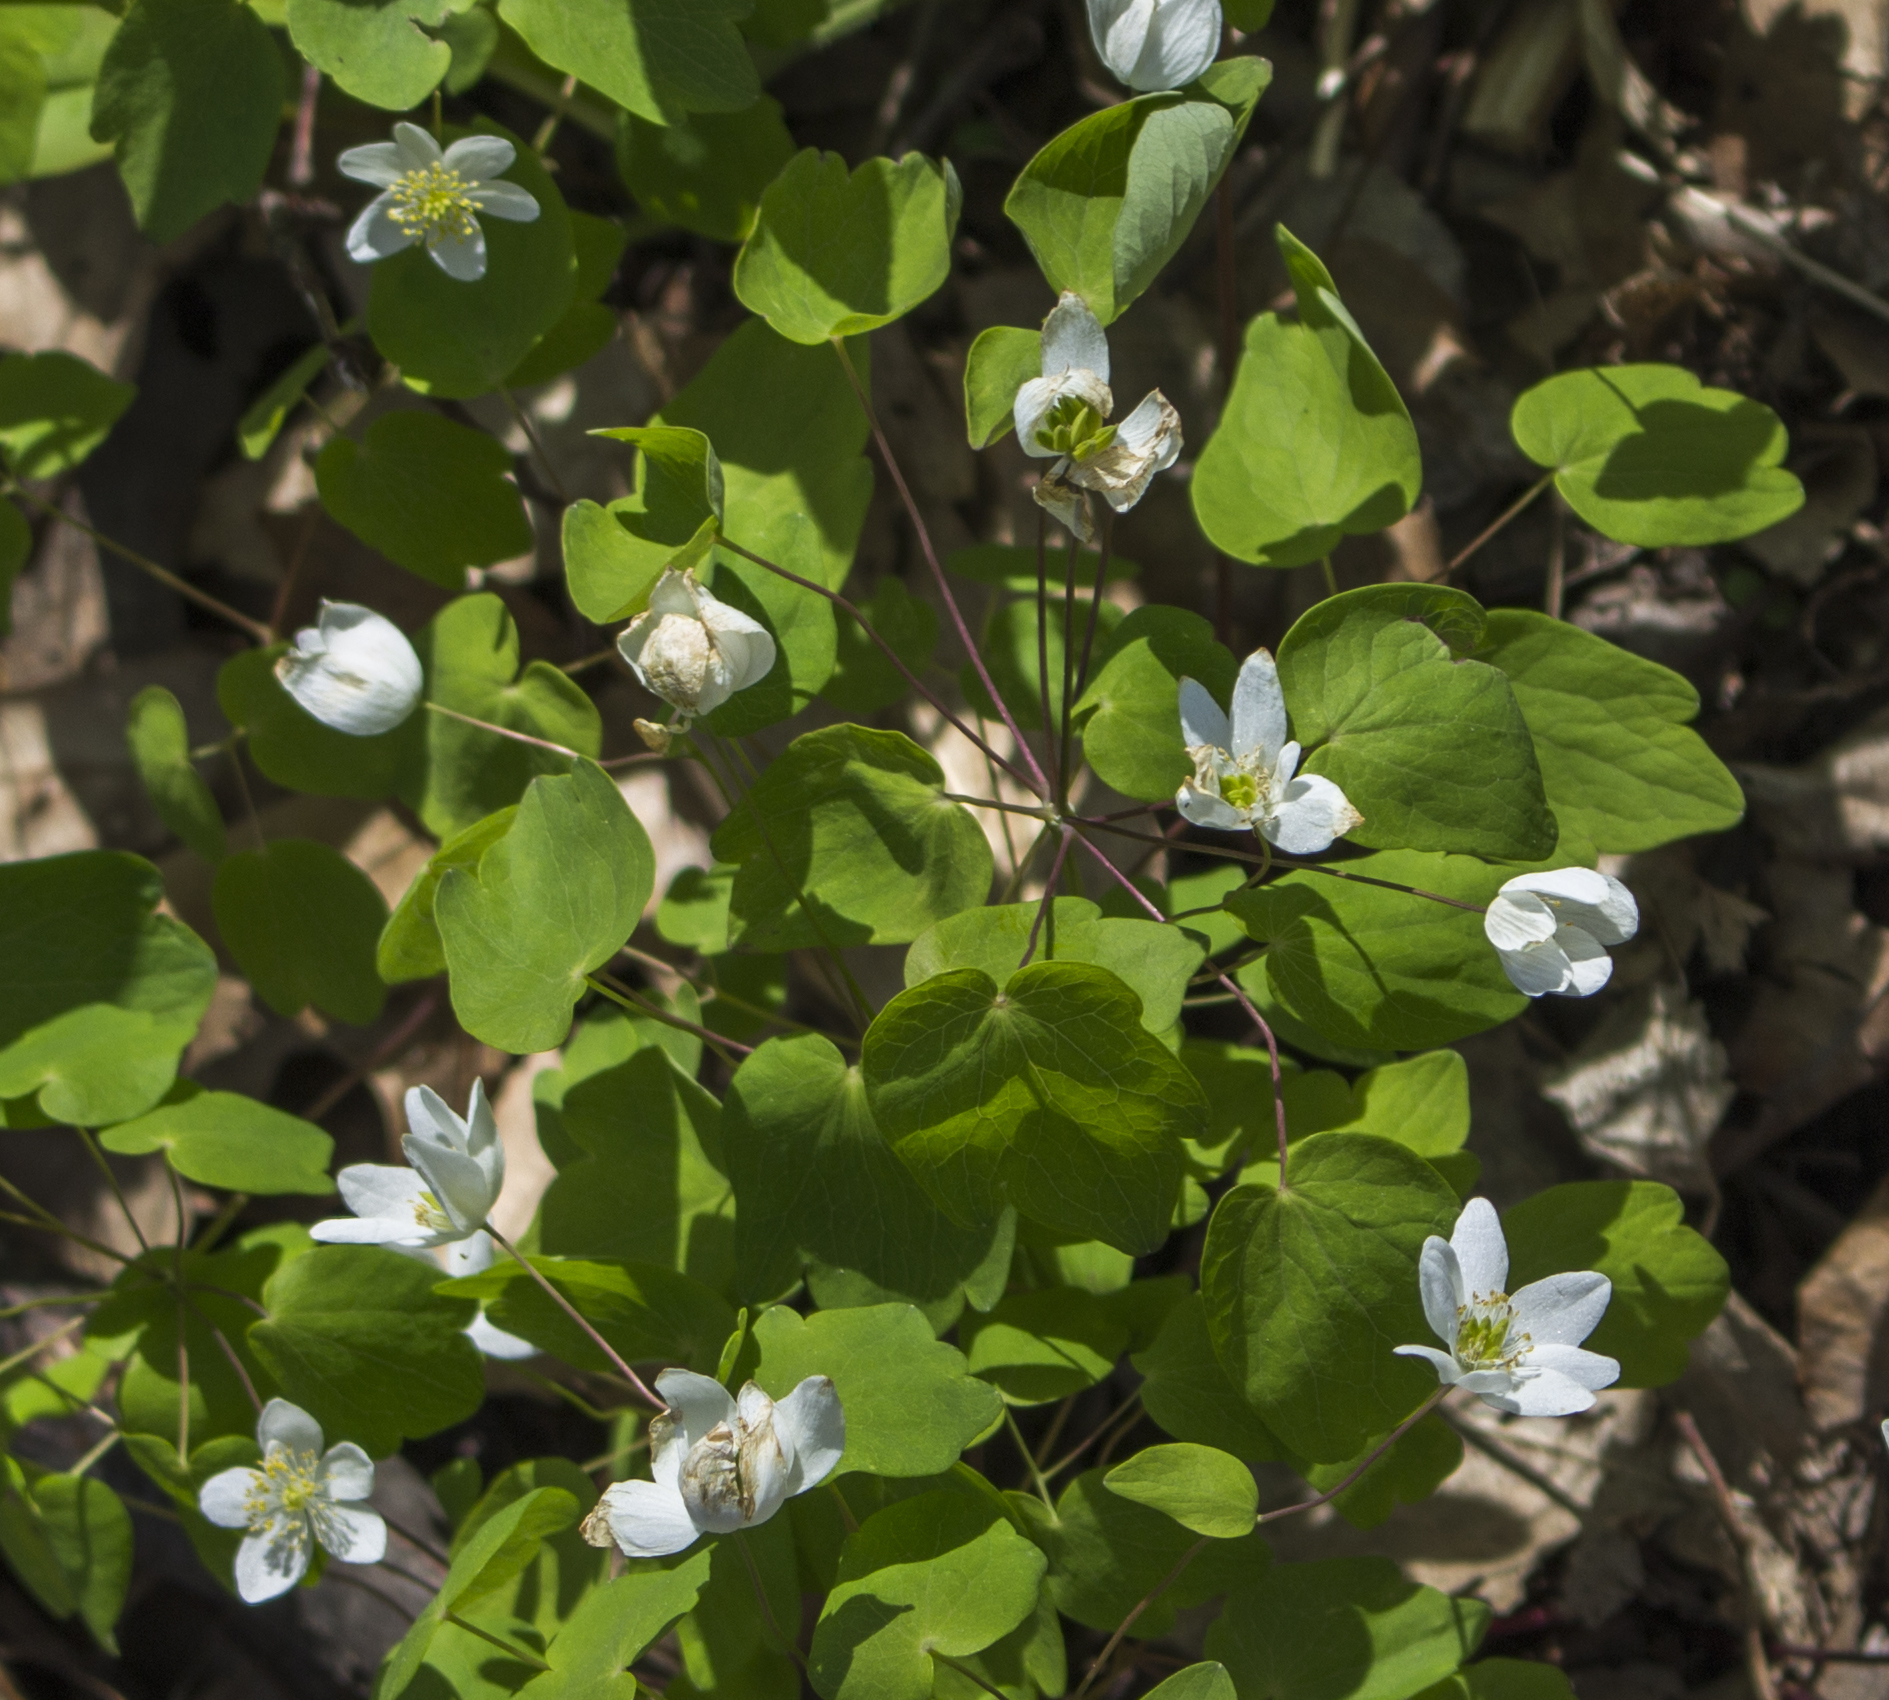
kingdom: Plantae
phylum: Tracheophyta
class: Magnoliopsida
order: Ranunculales
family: Ranunculaceae
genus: Thalictrum
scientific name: Thalictrum thalictroides
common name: Rue-anemone
